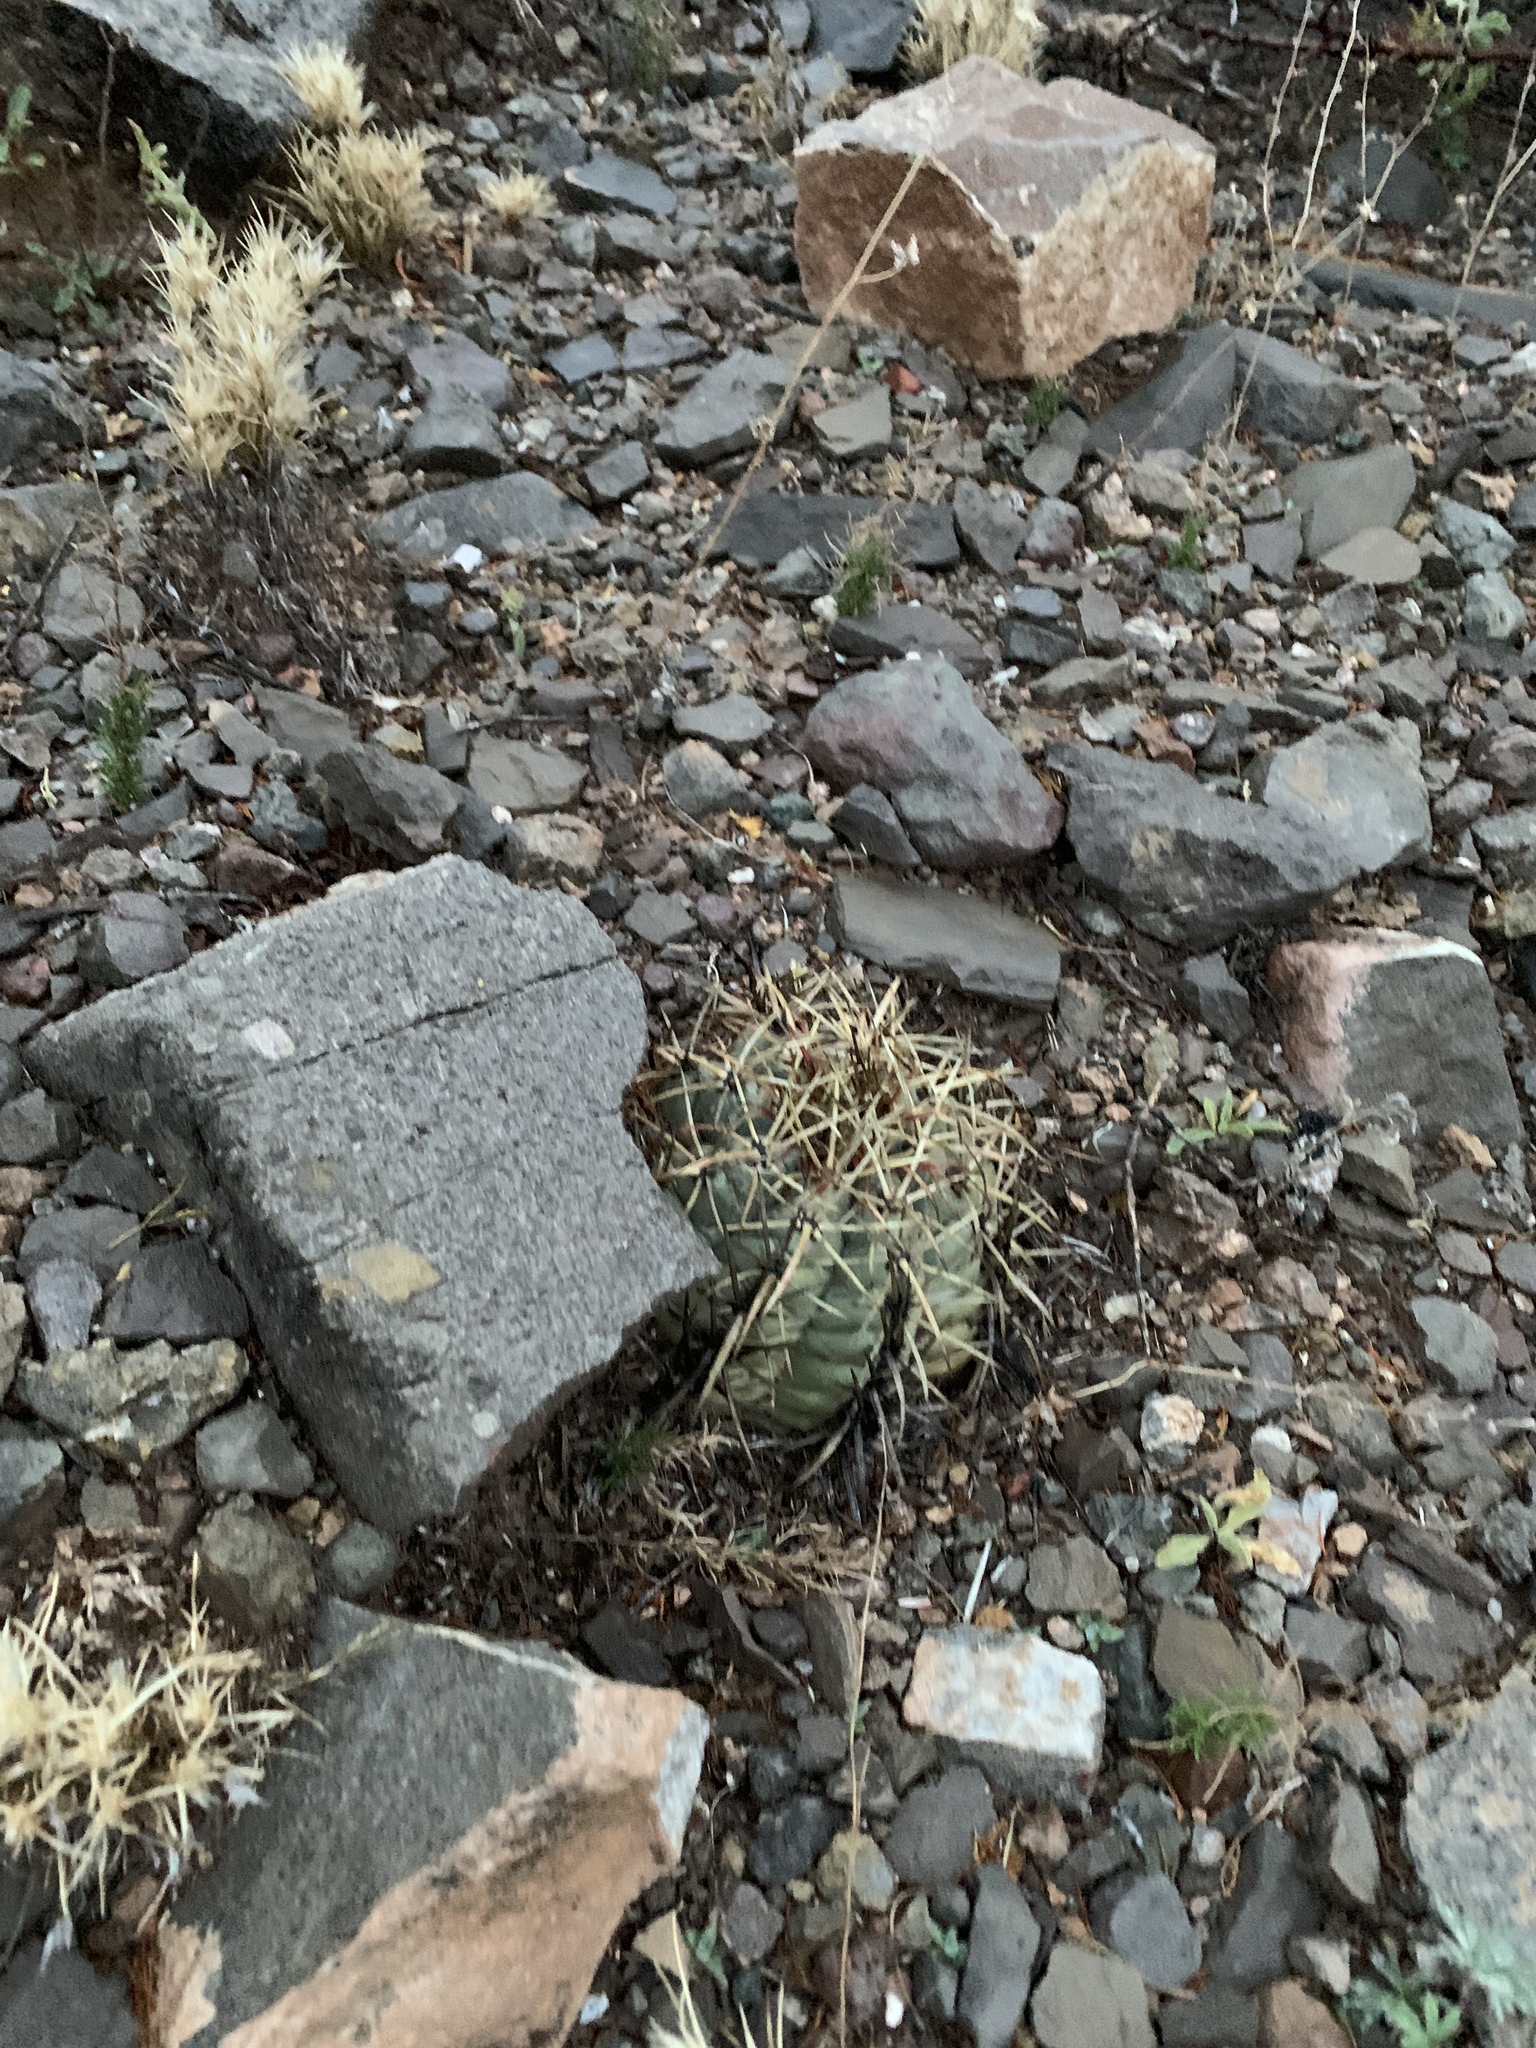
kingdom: Plantae
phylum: Tracheophyta
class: Magnoliopsida
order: Caryophyllales
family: Cactaceae
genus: Echinocactus
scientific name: Echinocactus horizonthalonius
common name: Devilshead
